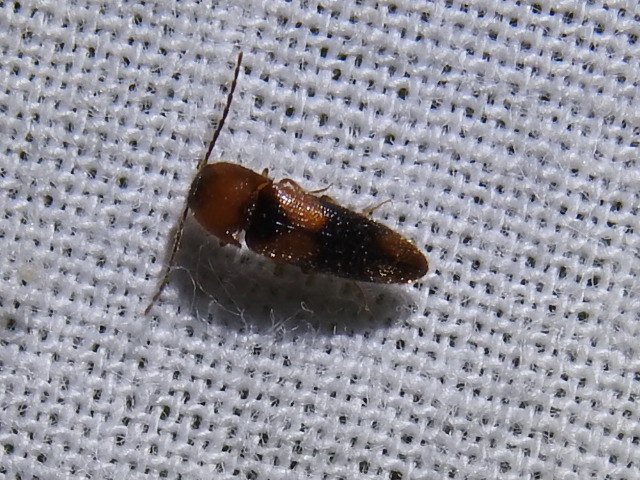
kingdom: Animalia
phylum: Arthropoda
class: Insecta
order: Coleoptera
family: Elateridae
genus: Ampedus
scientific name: Ampedus areolatus
